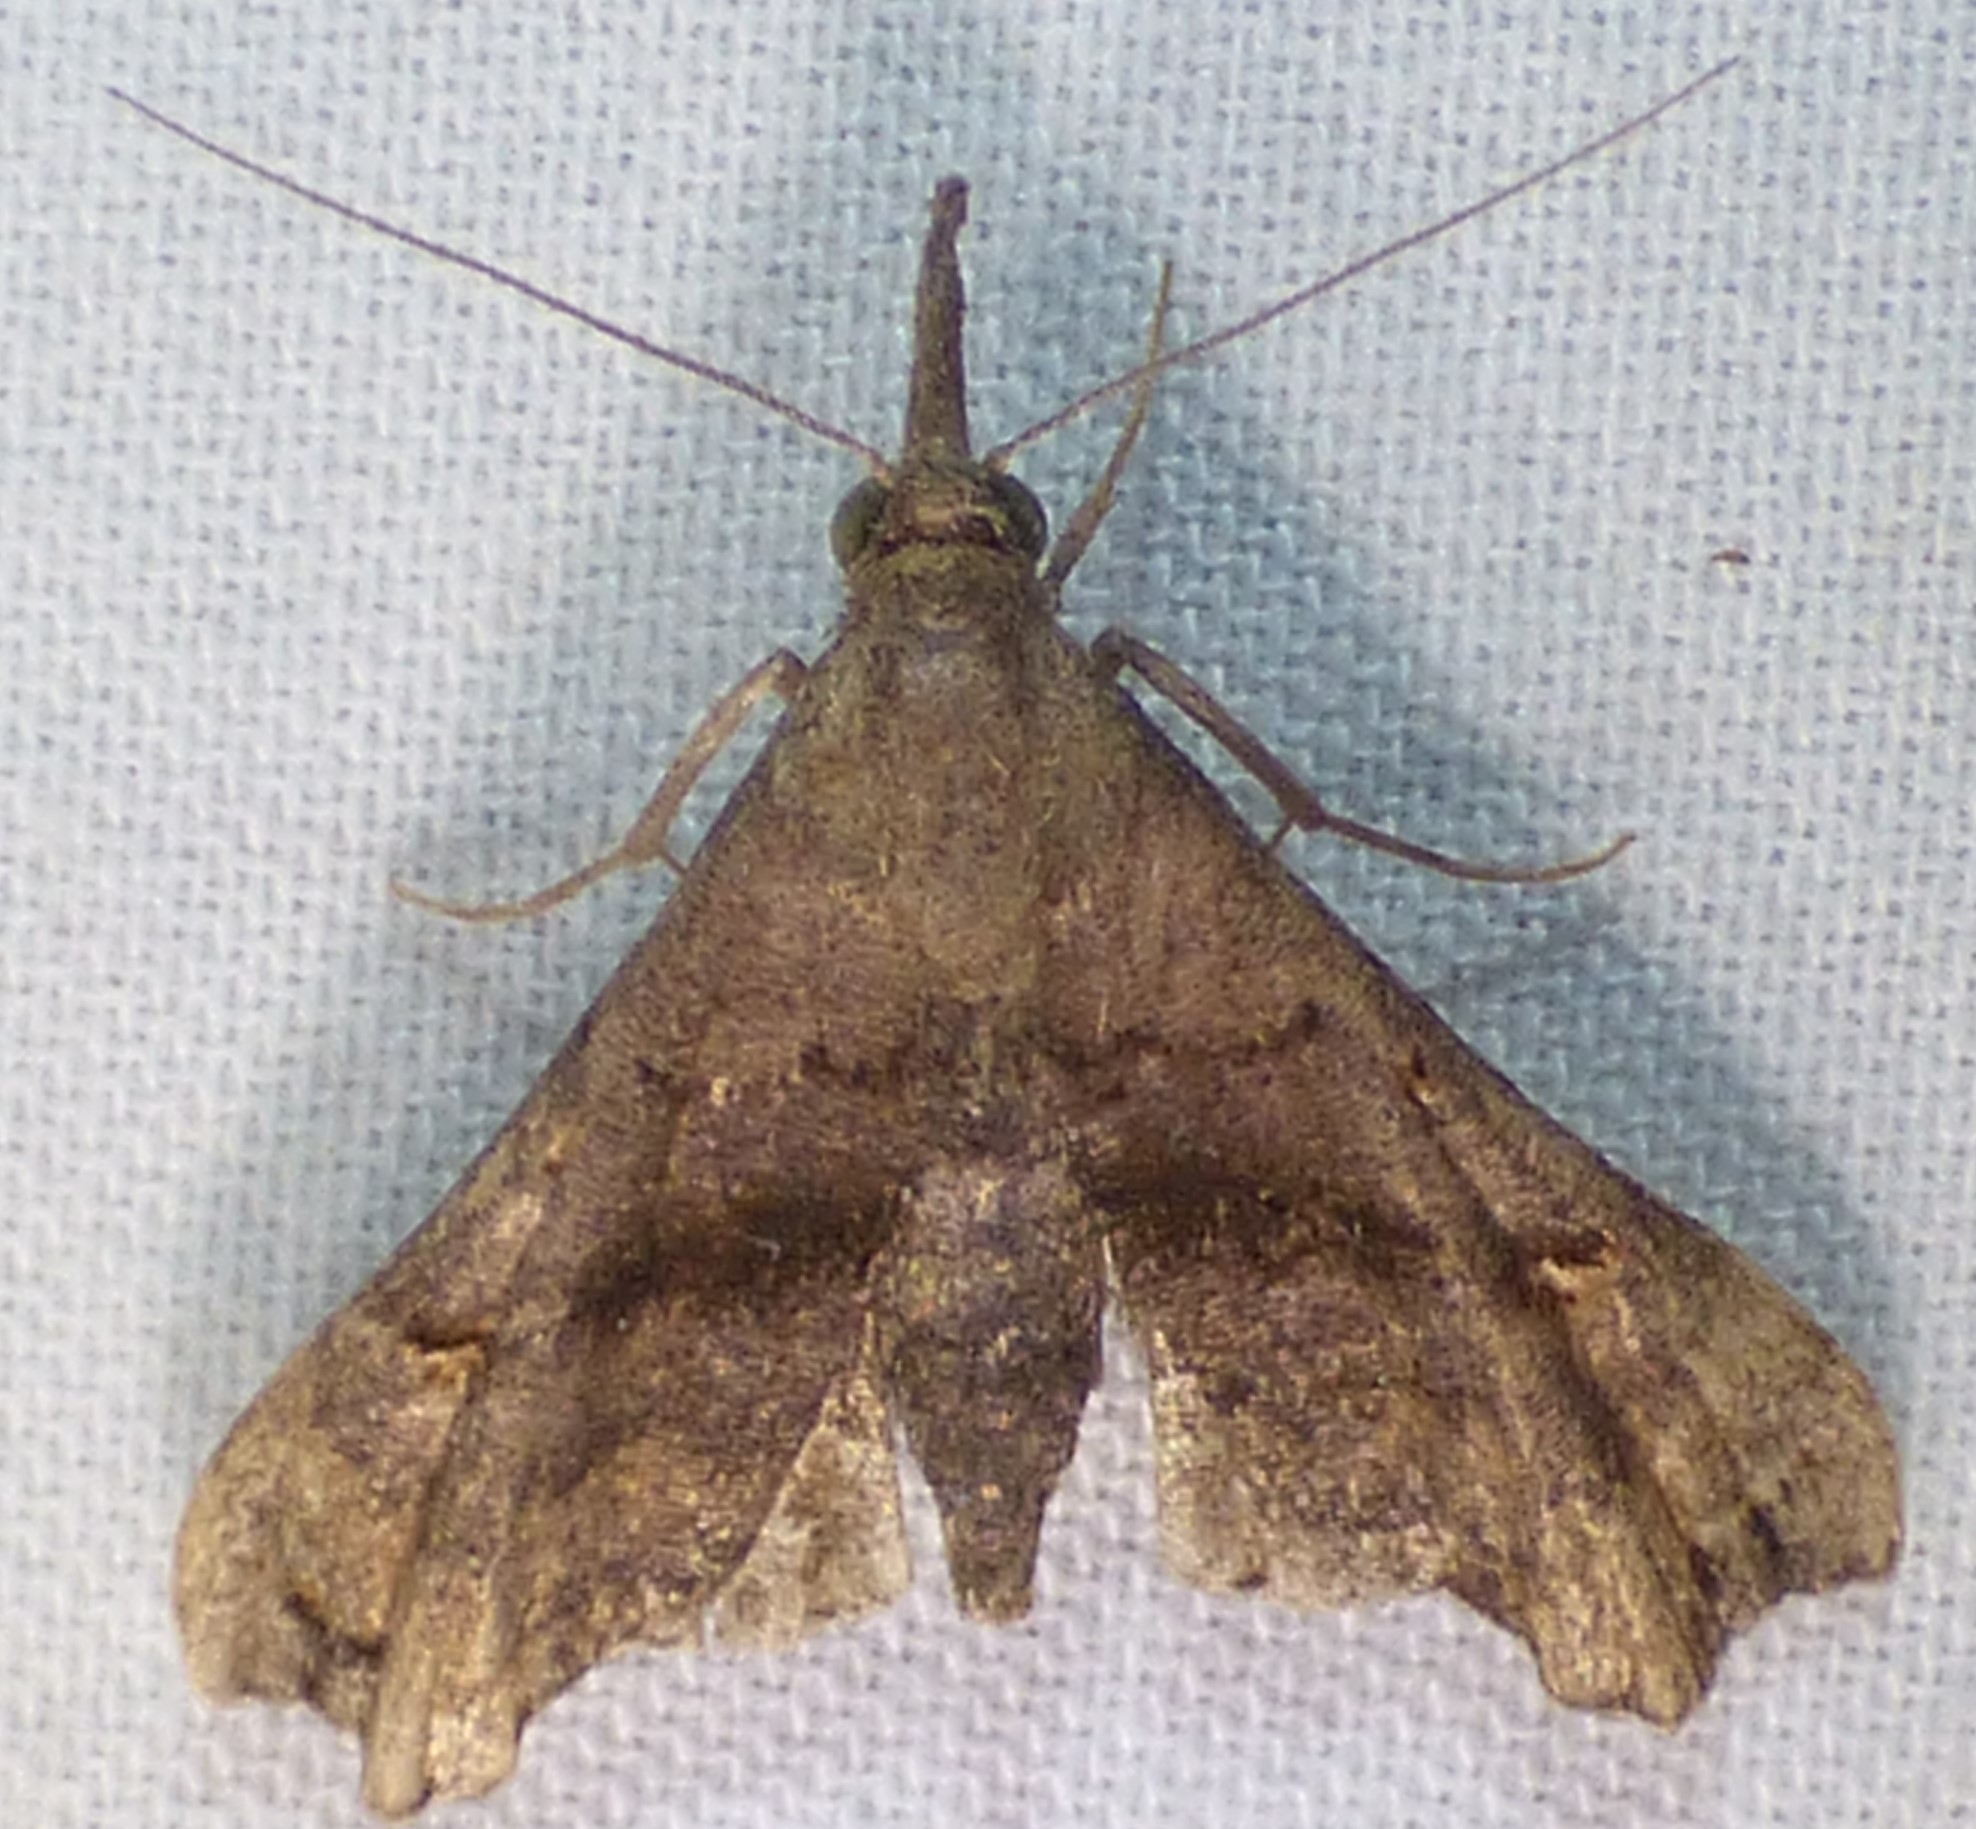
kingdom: Animalia
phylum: Arthropoda
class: Insecta
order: Lepidoptera
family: Erebidae
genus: Palthis
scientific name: Palthis asopialis
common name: Faint-spotted palthis moth
